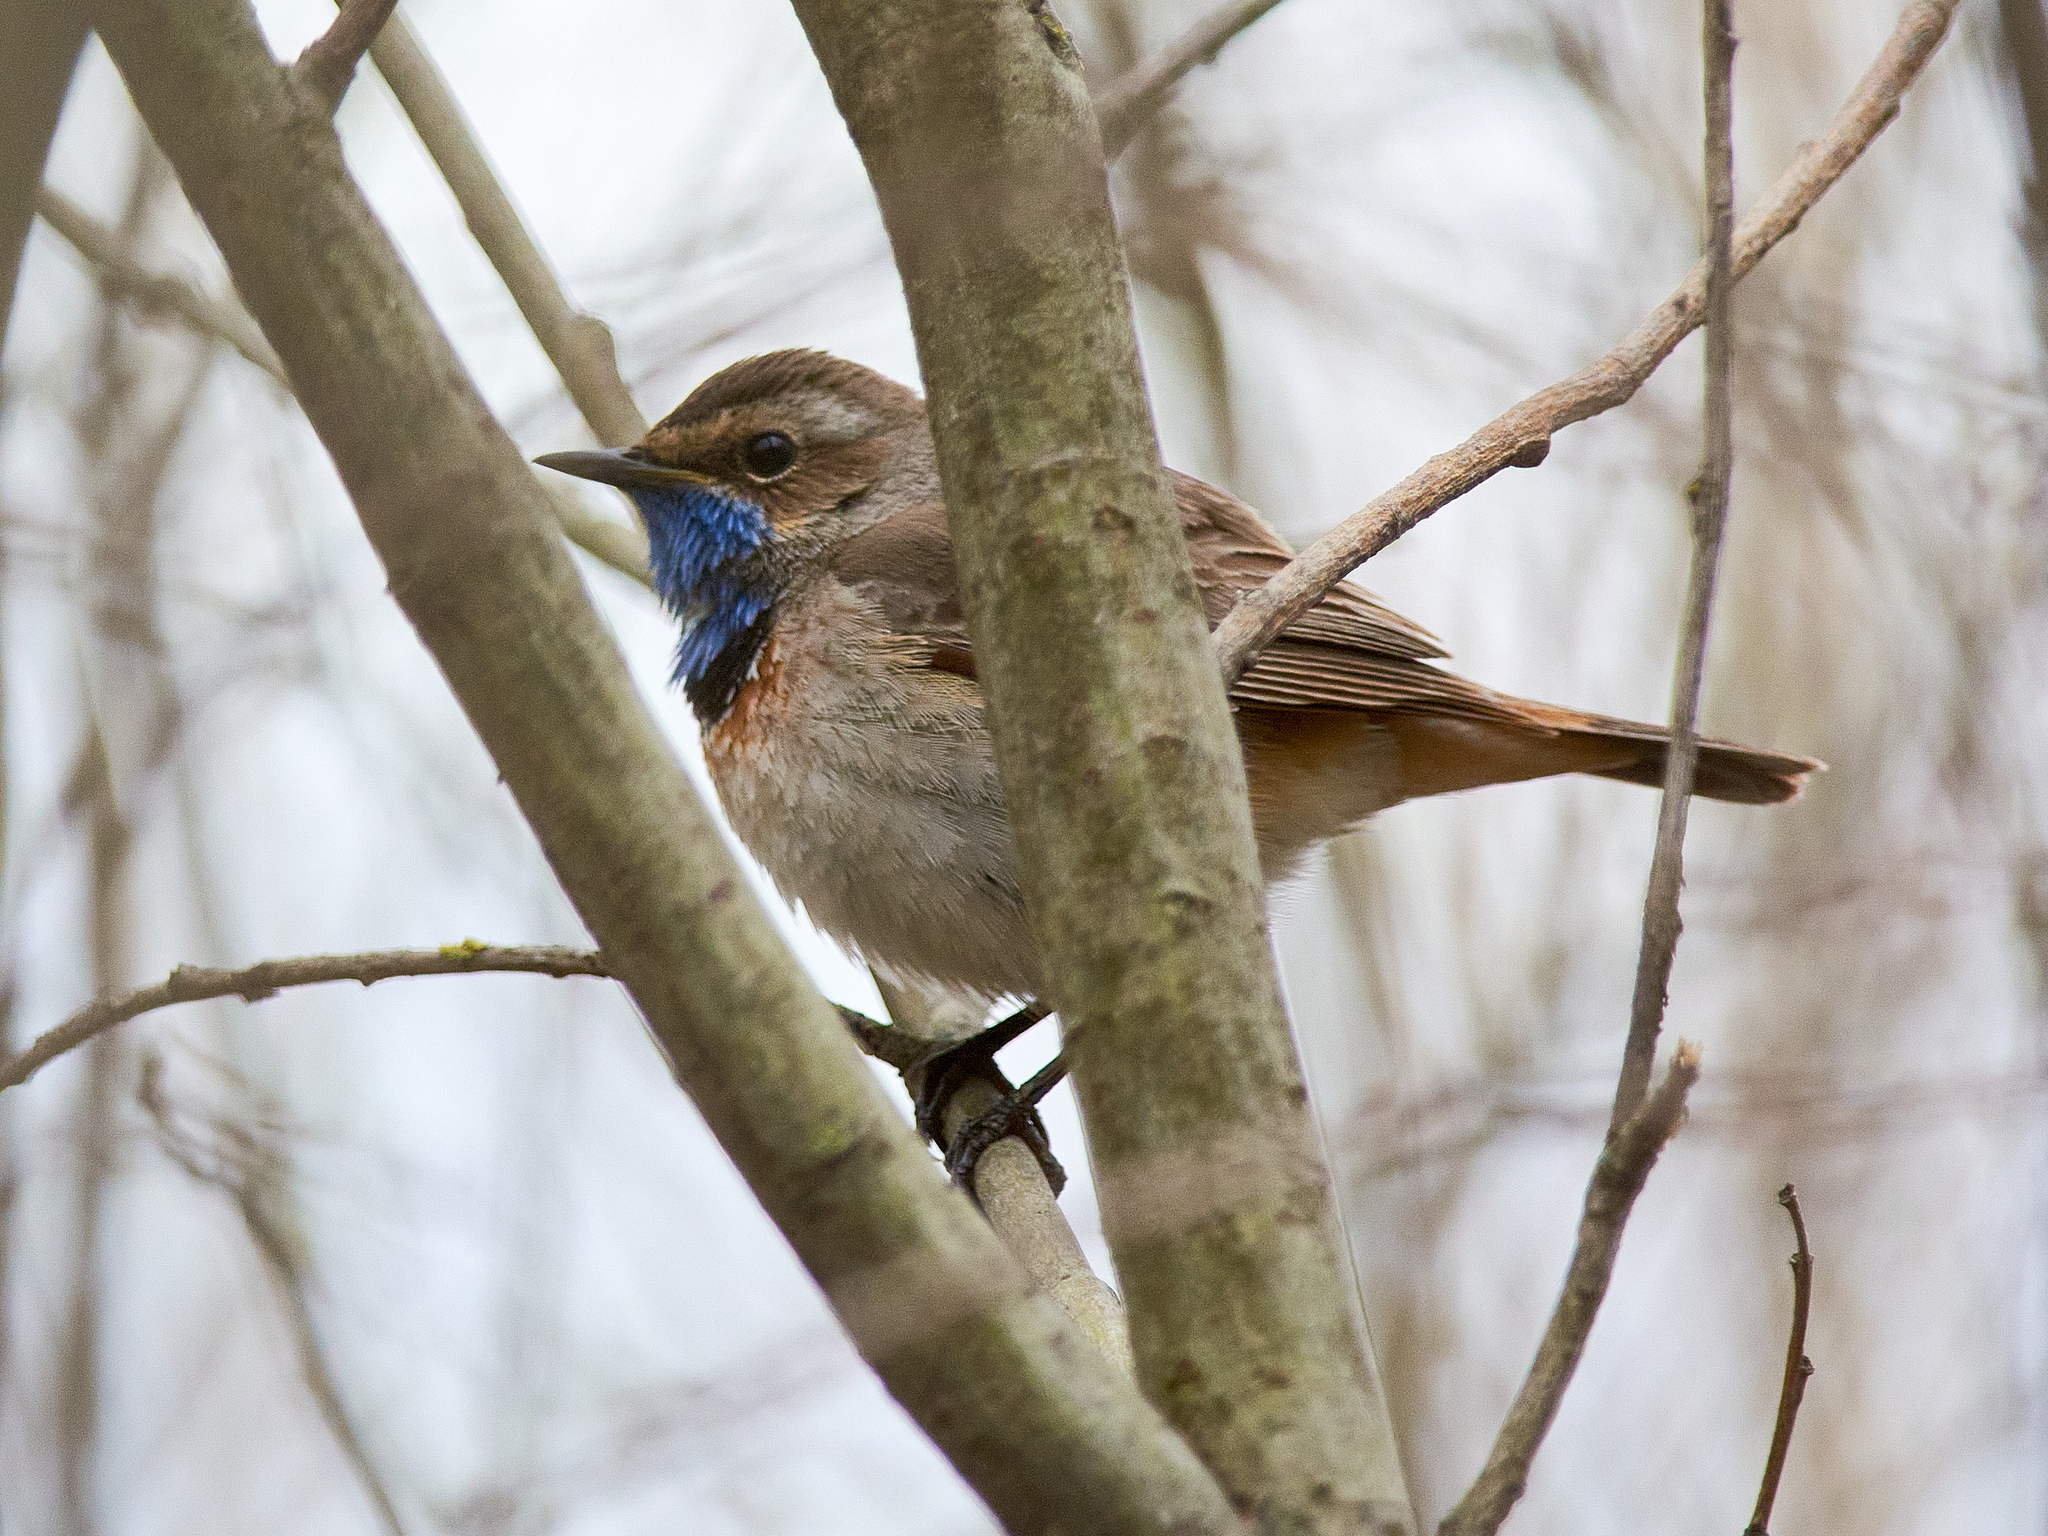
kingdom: Animalia
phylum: Chordata
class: Aves
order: Passeriformes
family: Muscicapidae
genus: Luscinia
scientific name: Luscinia svecica
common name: Bluethroat
